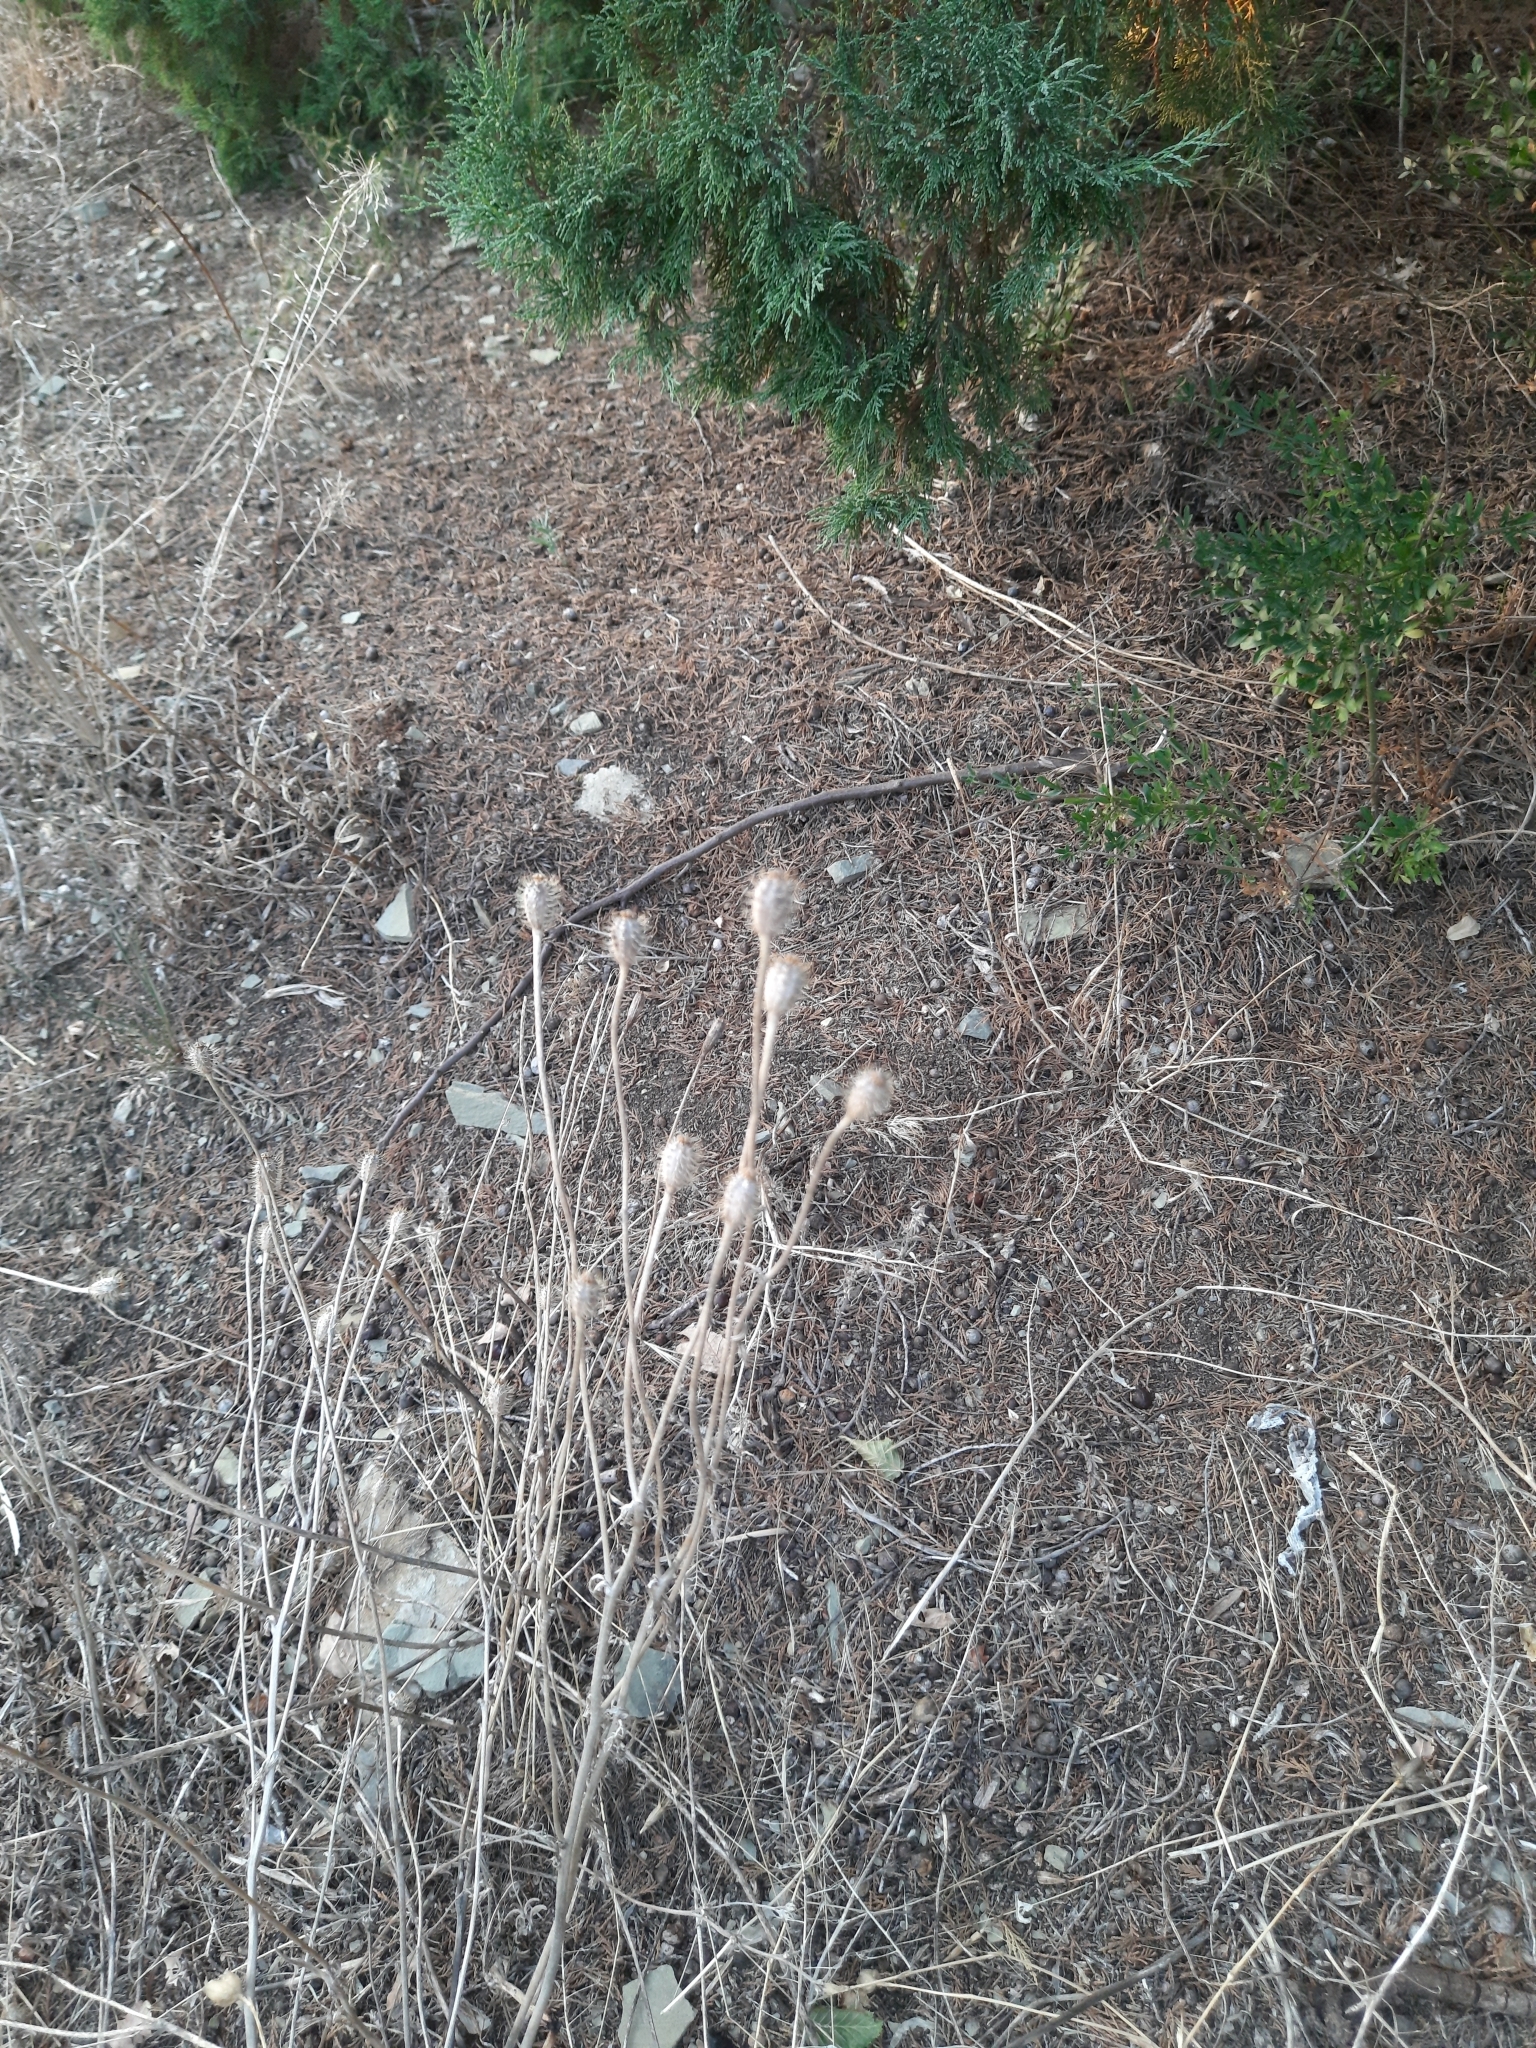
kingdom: Plantae
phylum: Tracheophyta
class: Magnoliopsida
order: Ranunculales
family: Papaveraceae
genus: Roemeria
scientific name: Roemeria hispida
